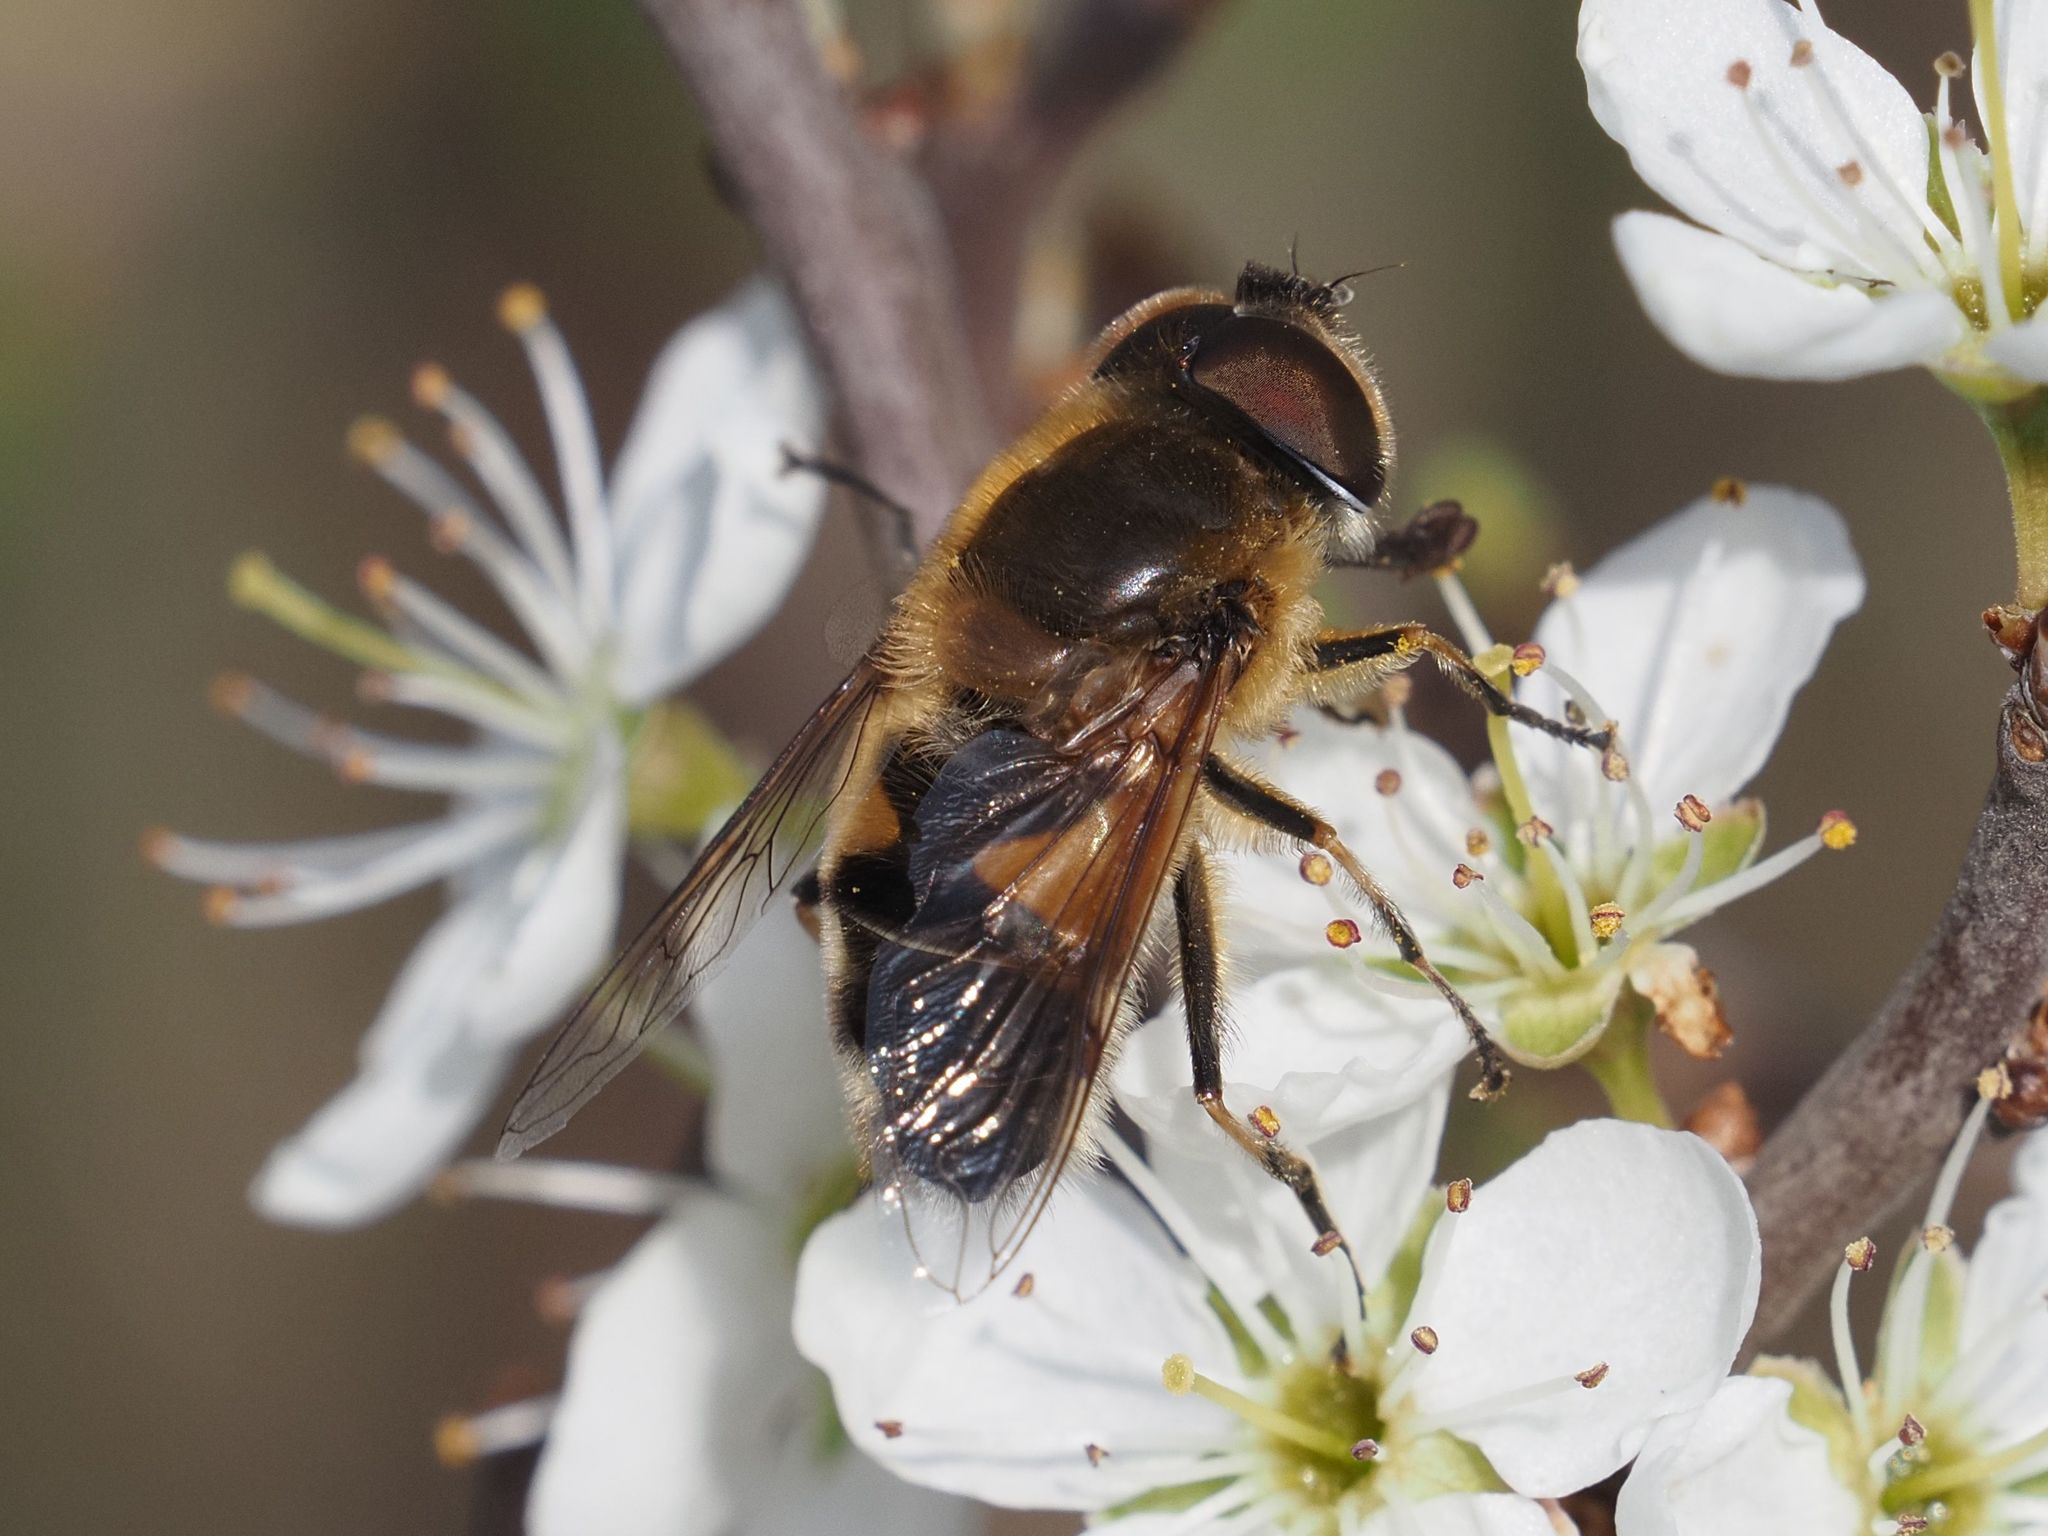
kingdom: Animalia
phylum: Arthropoda
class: Insecta
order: Diptera
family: Syrphidae
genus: Eristalis
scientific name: Eristalis pertinax
